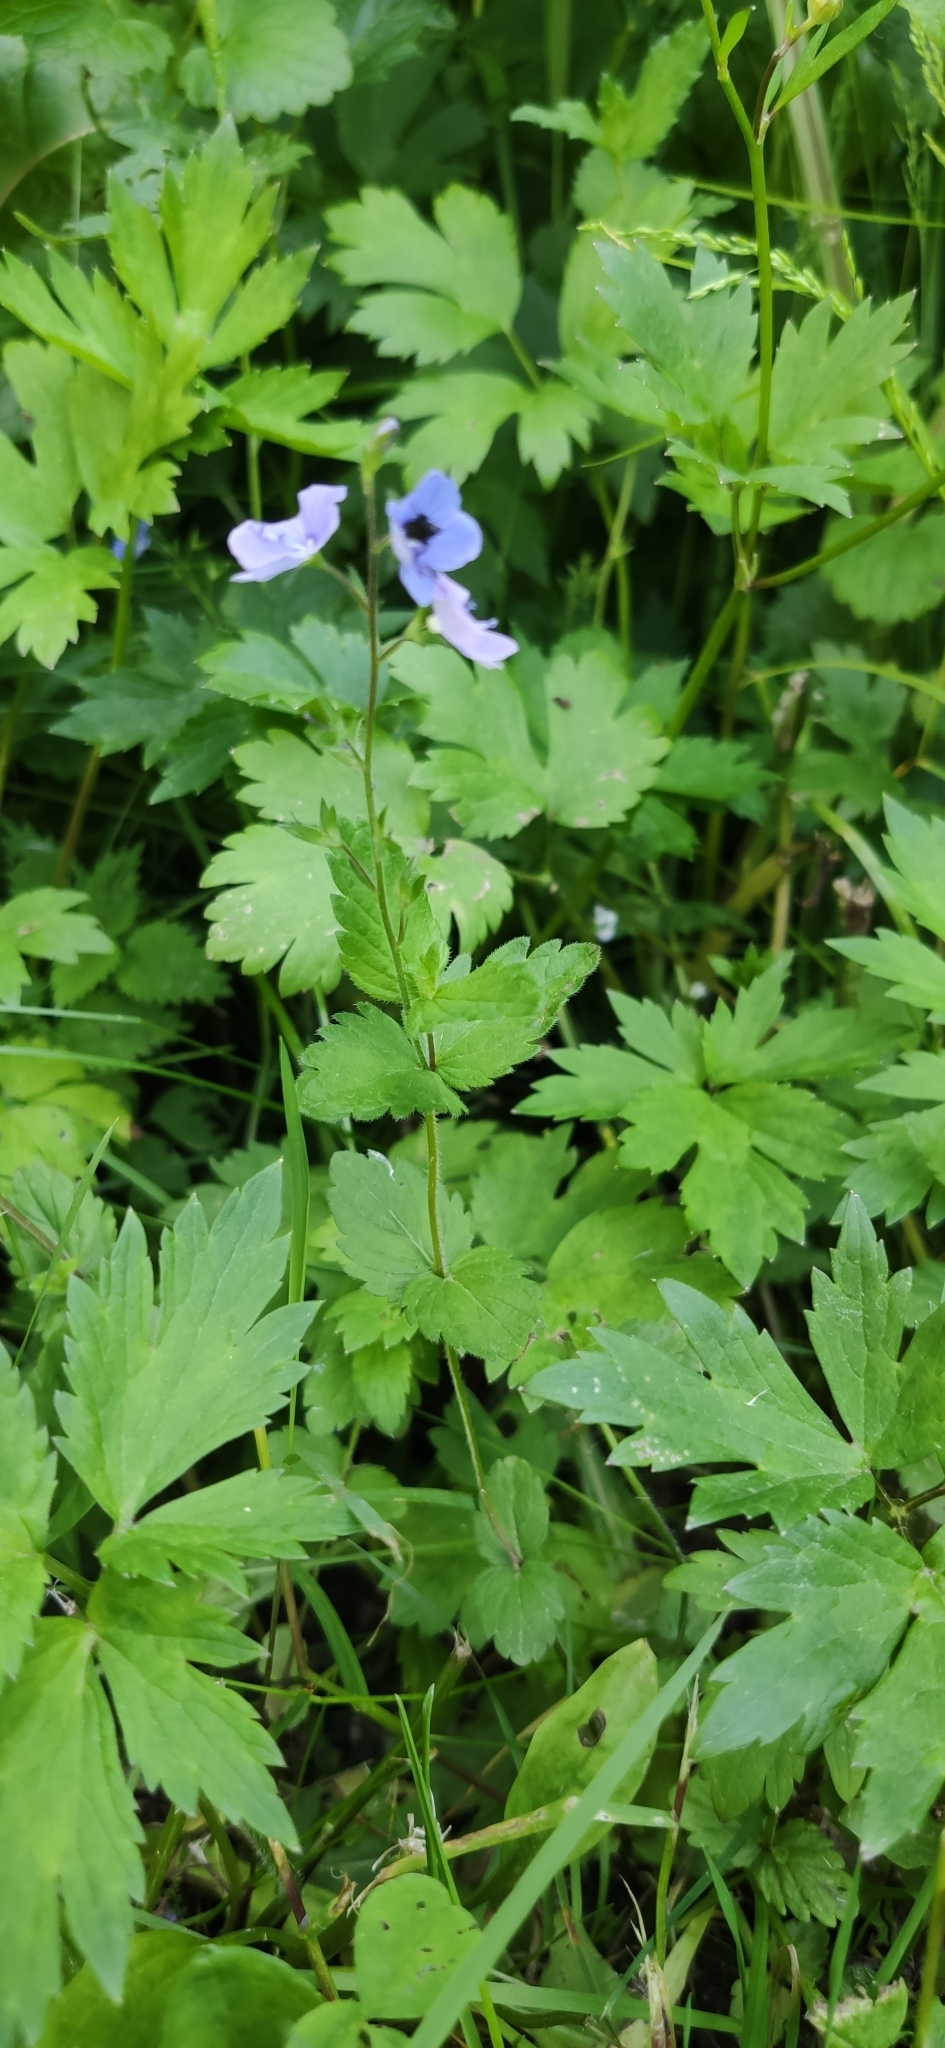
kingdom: Plantae
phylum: Tracheophyta
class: Magnoliopsida
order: Lamiales
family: Plantaginaceae
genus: Veronica
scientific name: Veronica chamaedrys
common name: Germander speedwell
